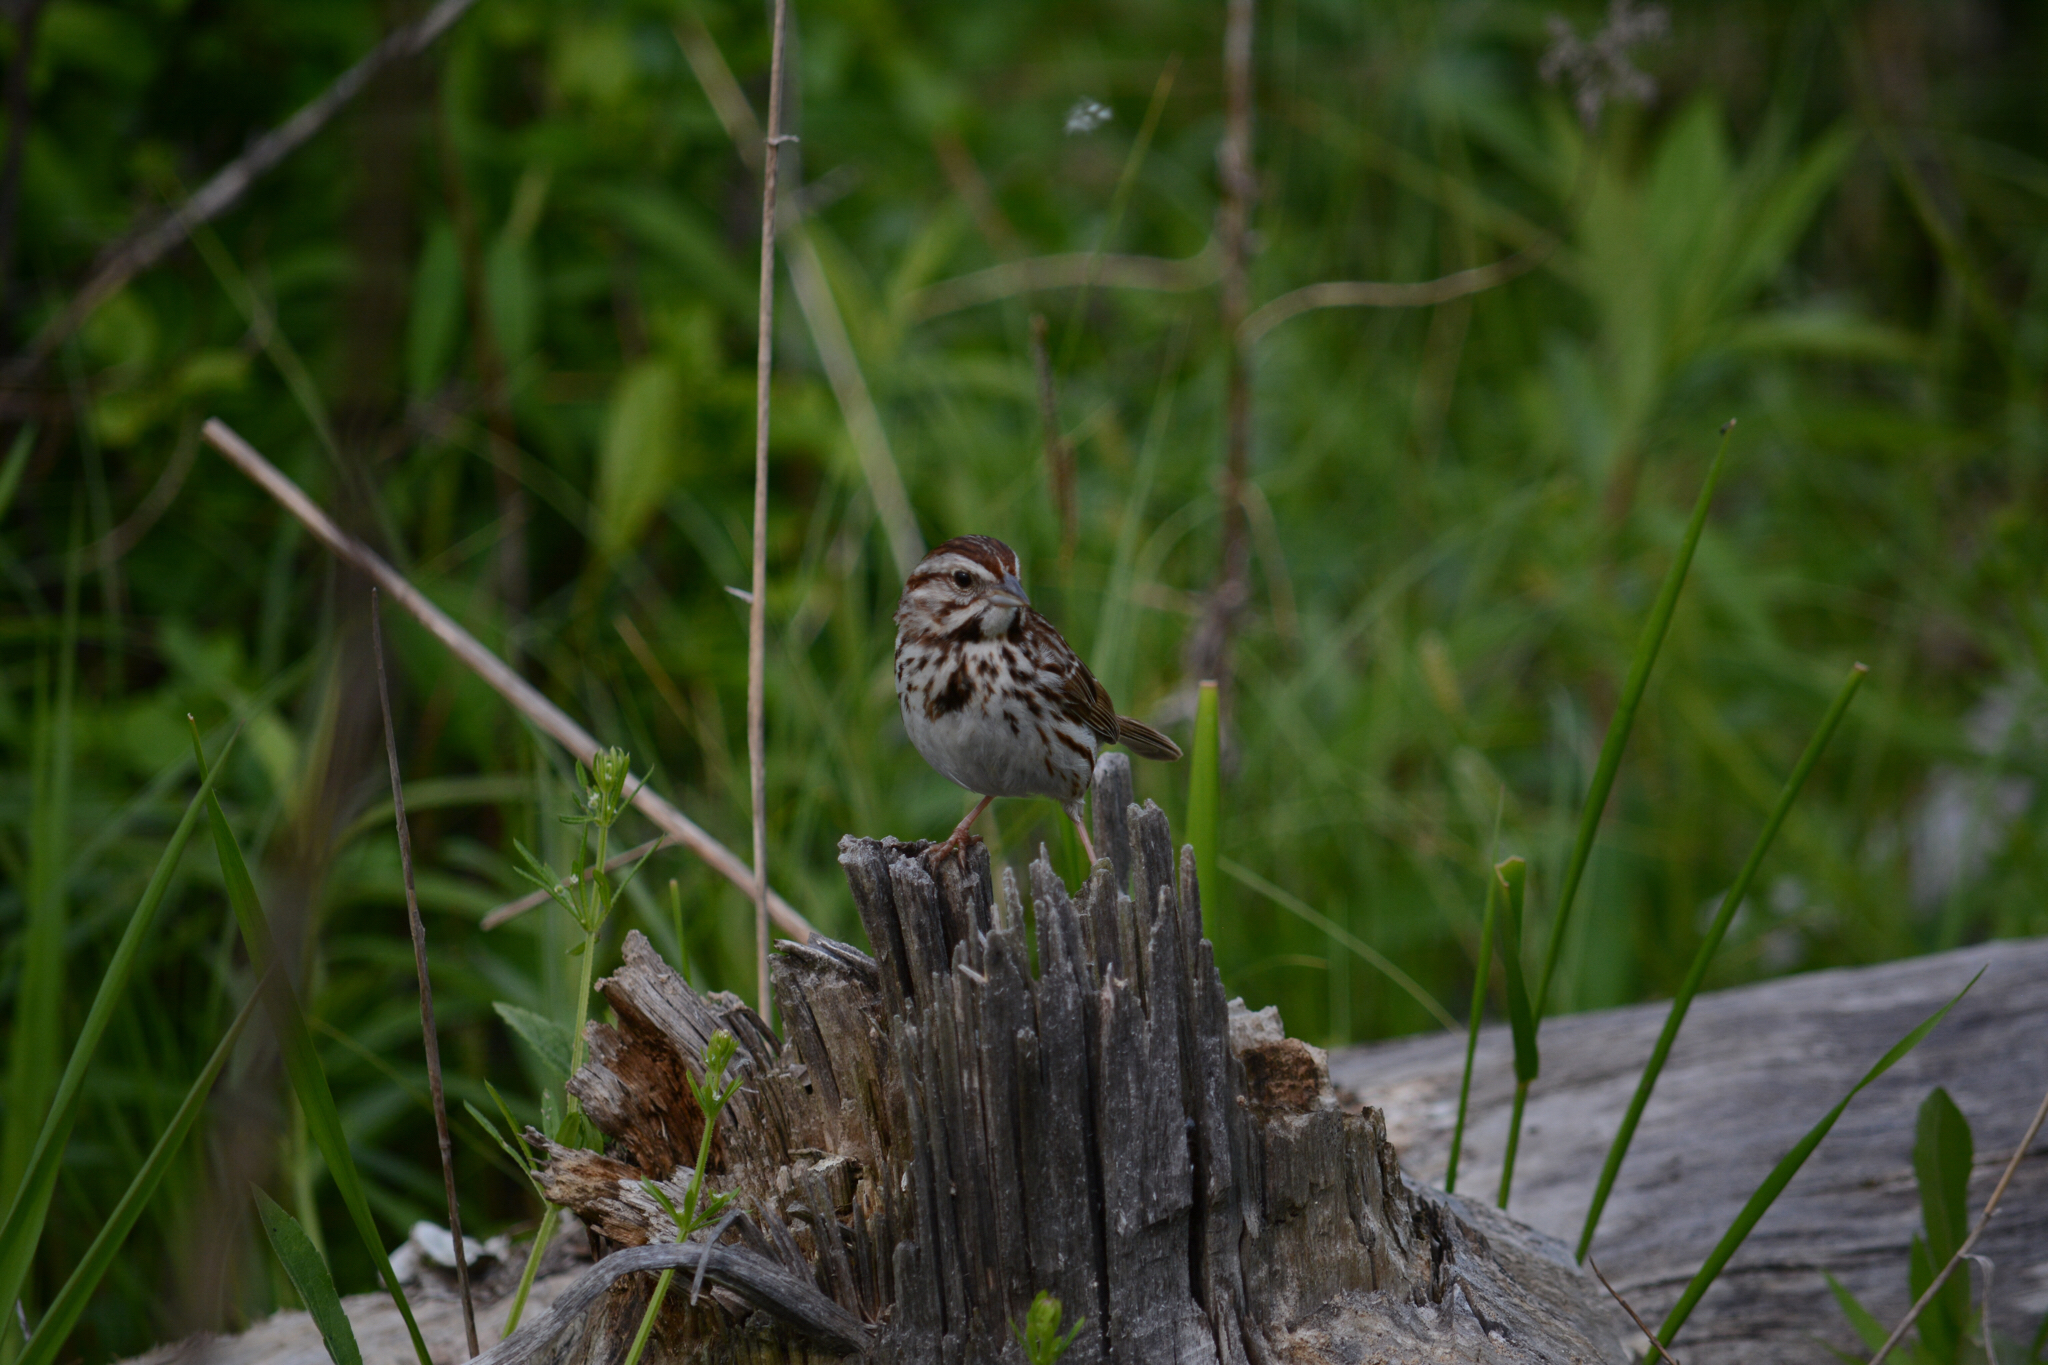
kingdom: Animalia
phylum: Chordata
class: Aves
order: Passeriformes
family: Passerellidae
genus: Melospiza
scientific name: Melospiza melodia
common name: Song sparrow
